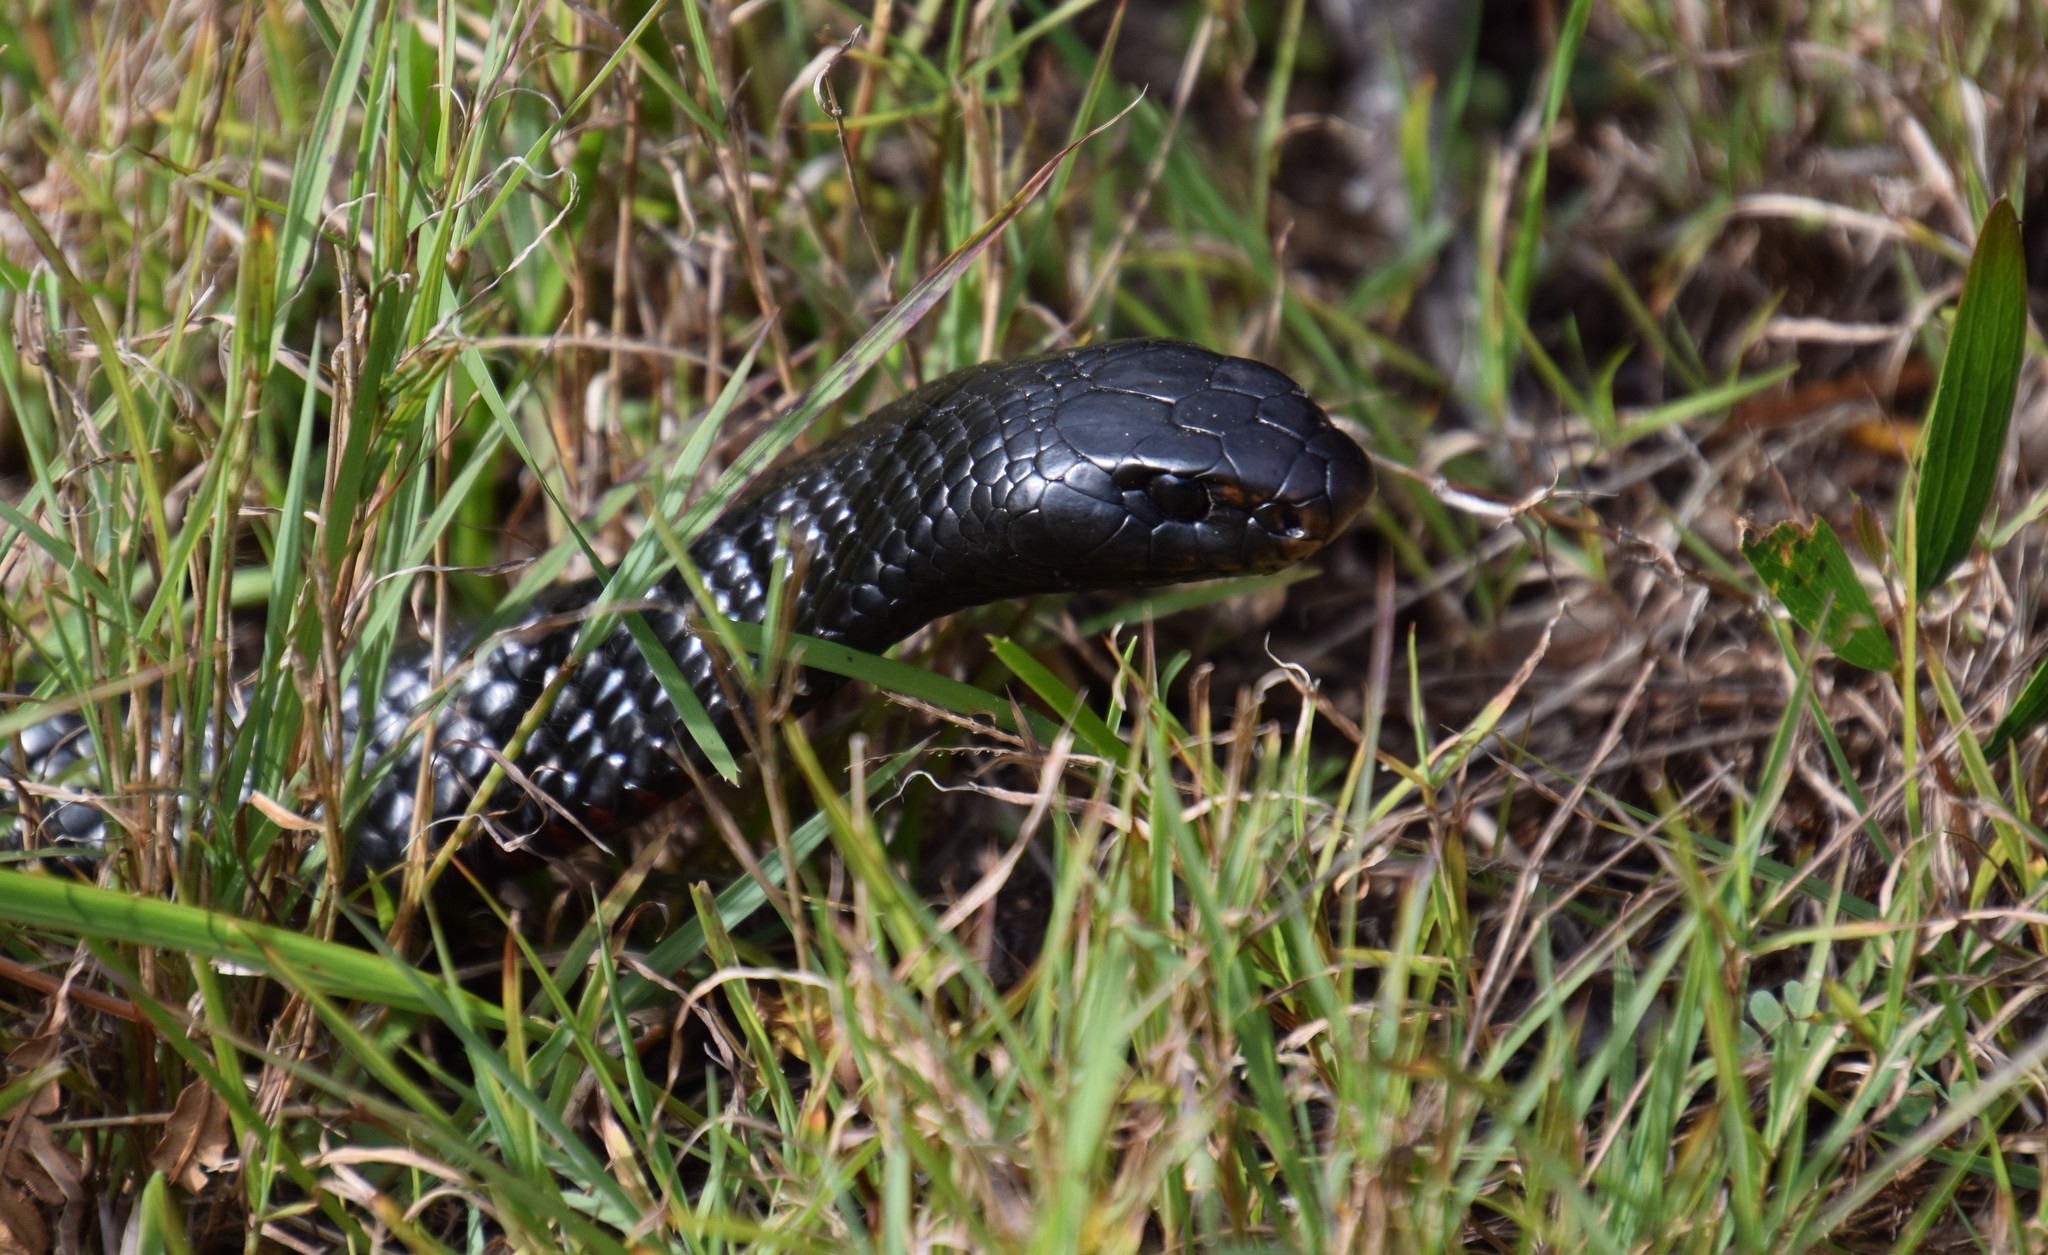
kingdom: Animalia
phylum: Chordata
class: Squamata
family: Elapidae
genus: Pseudechis
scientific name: Pseudechis porphyriacus
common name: Australian black snake
